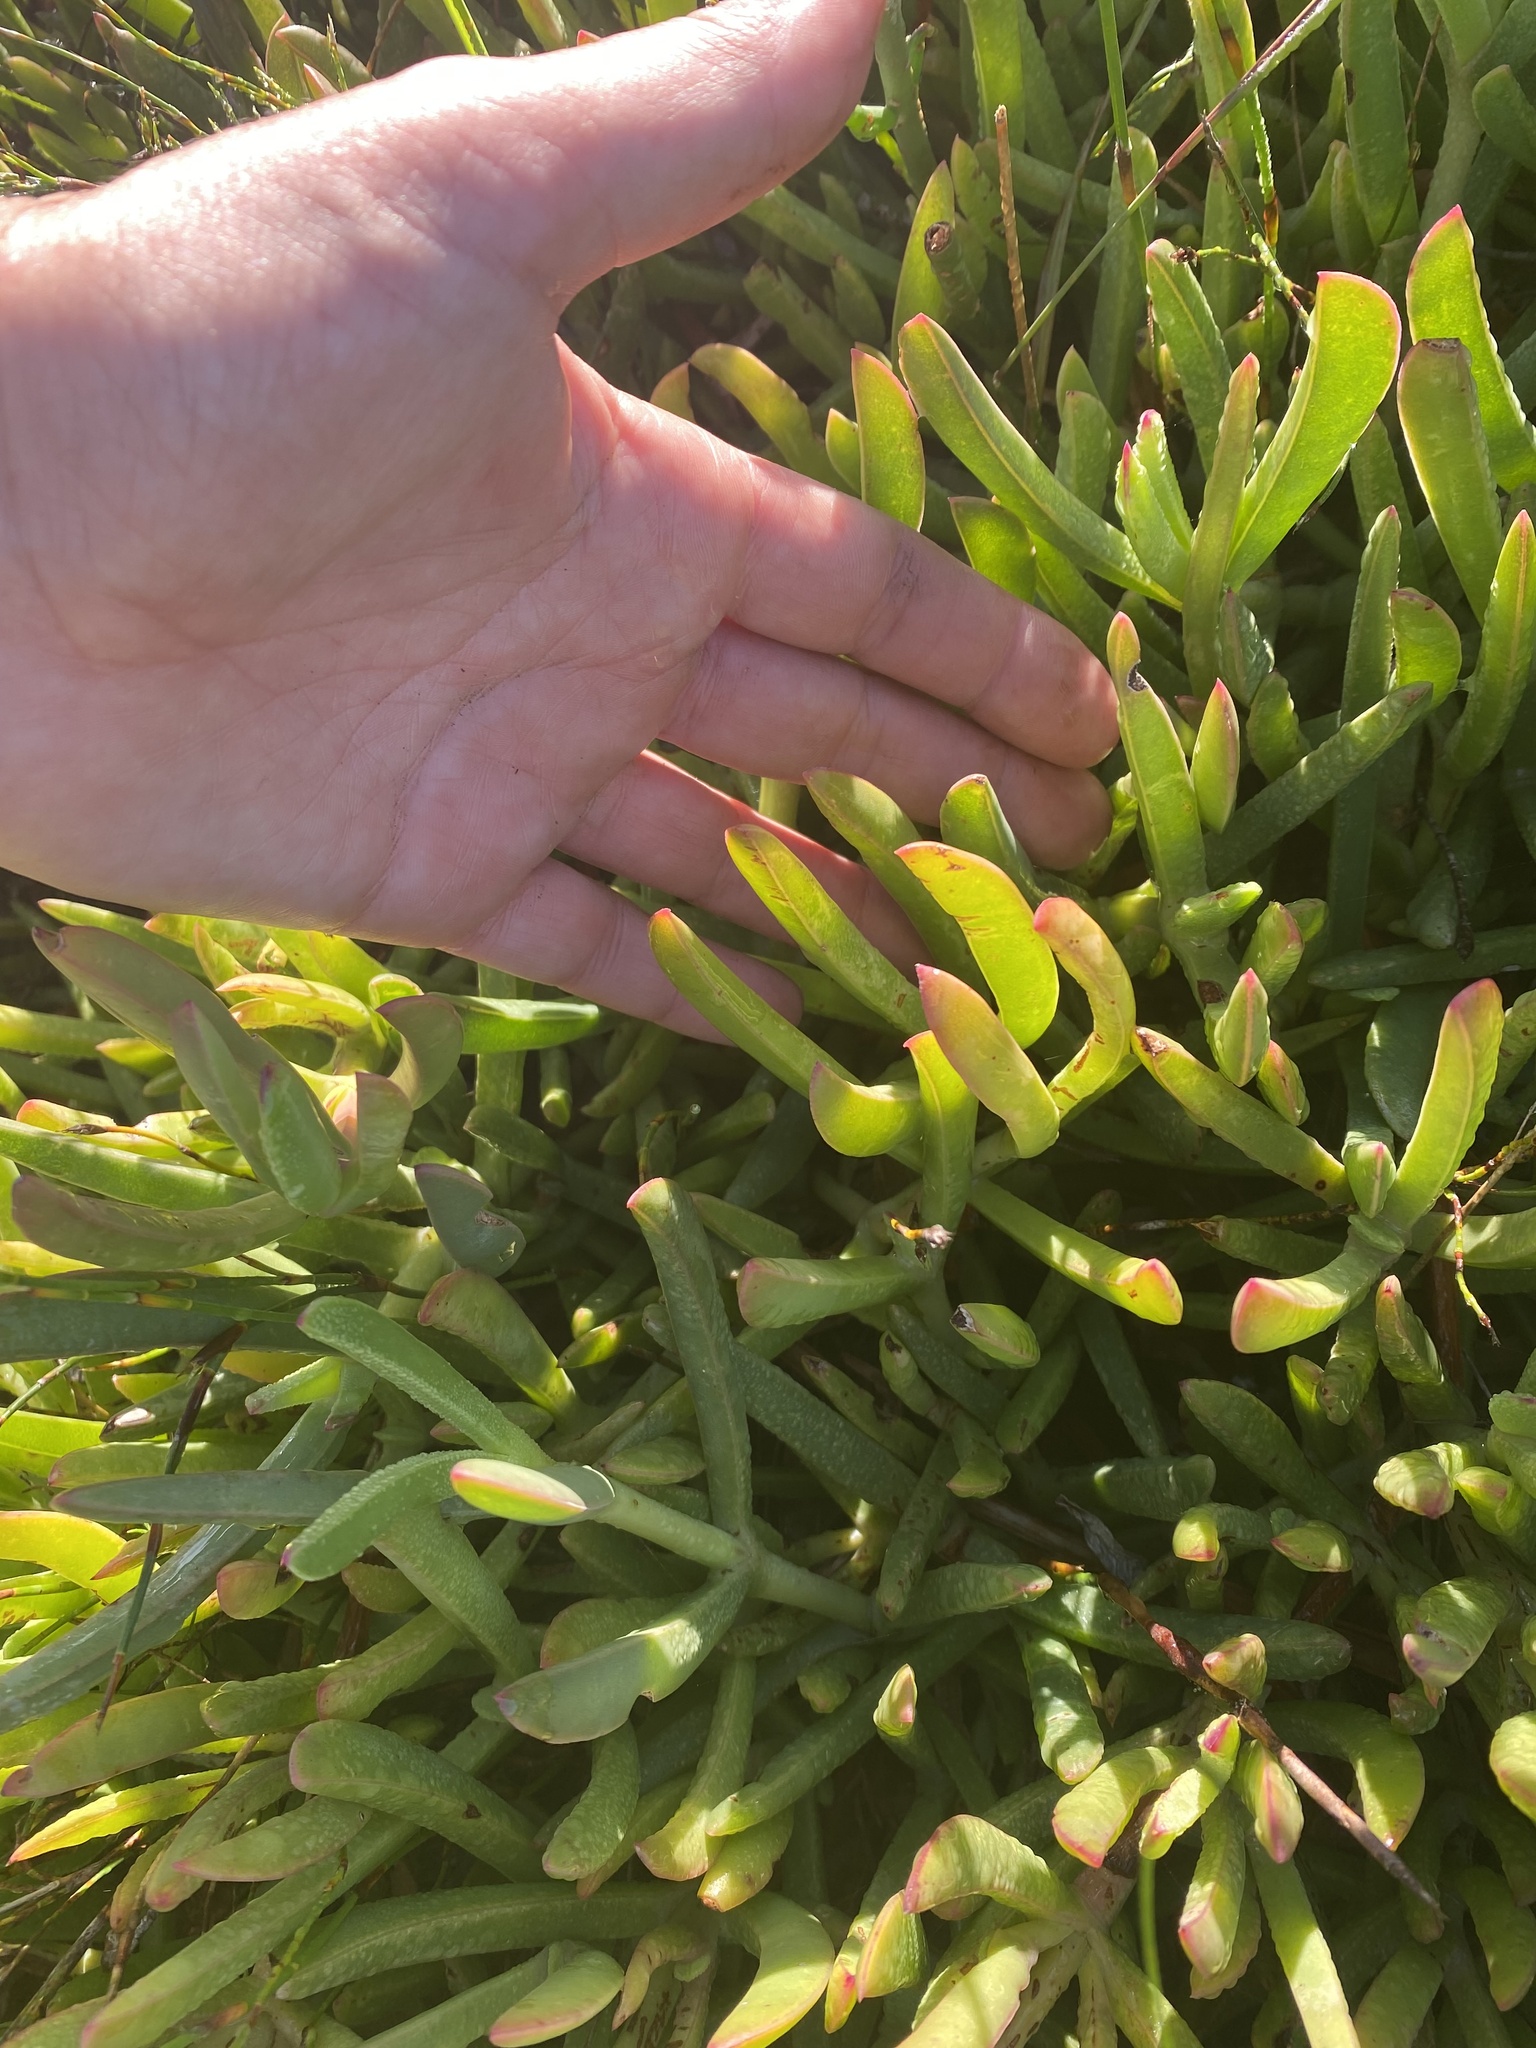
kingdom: Plantae
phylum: Tracheophyta
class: Magnoliopsida
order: Caryophyllales
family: Aizoaceae
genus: Carpobrotus
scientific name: Carpobrotus muirii
